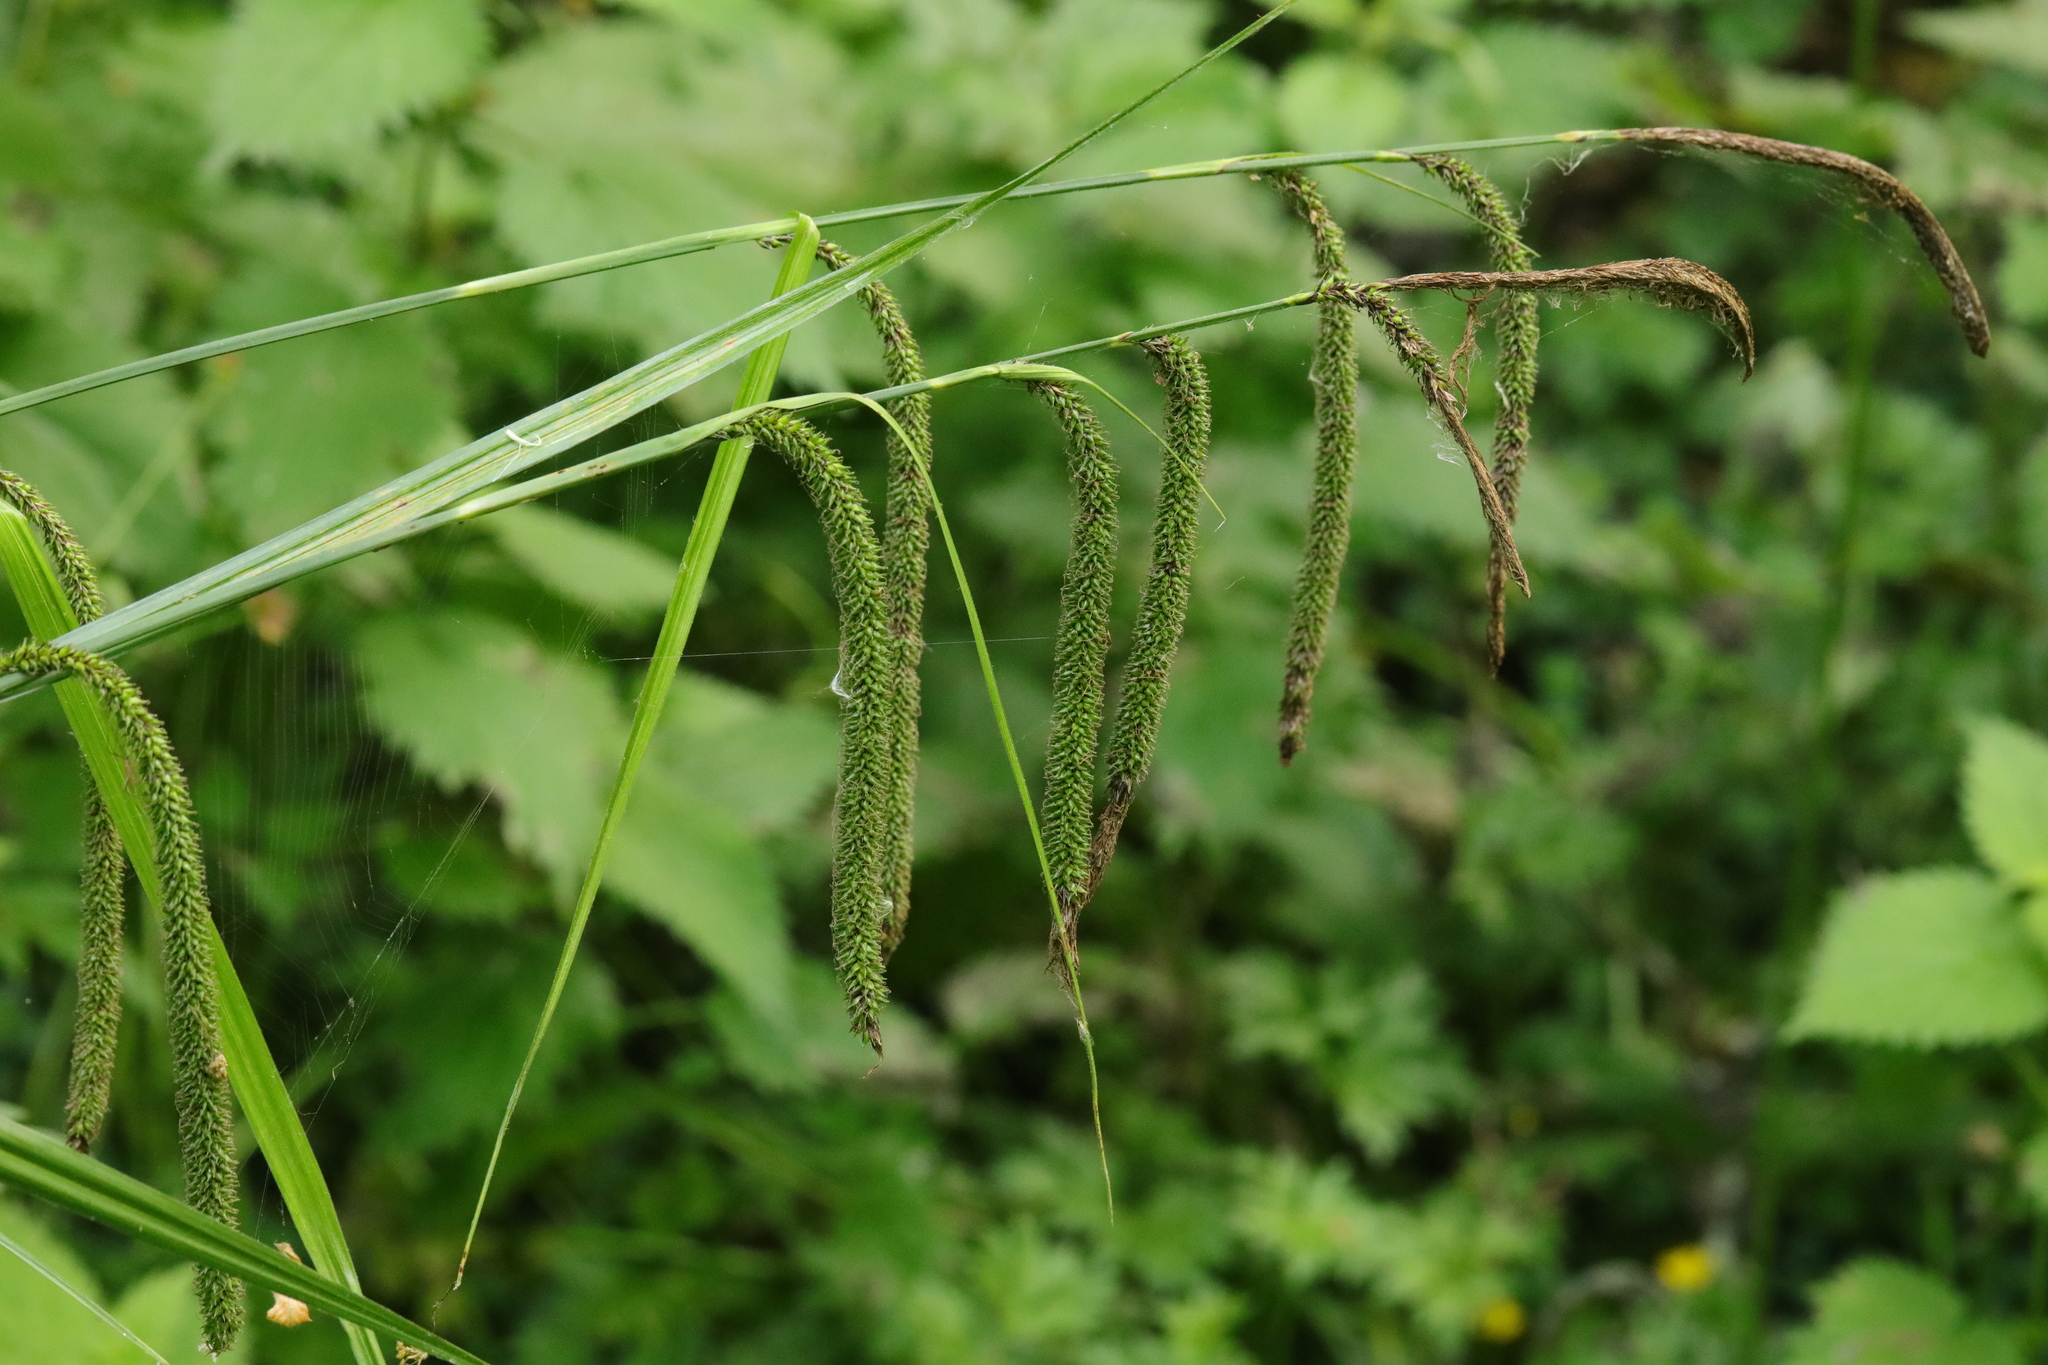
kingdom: Plantae
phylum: Tracheophyta
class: Liliopsida
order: Poales
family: Cyperaceae
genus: Carex
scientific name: Carex pendula
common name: Pendulous sedge
